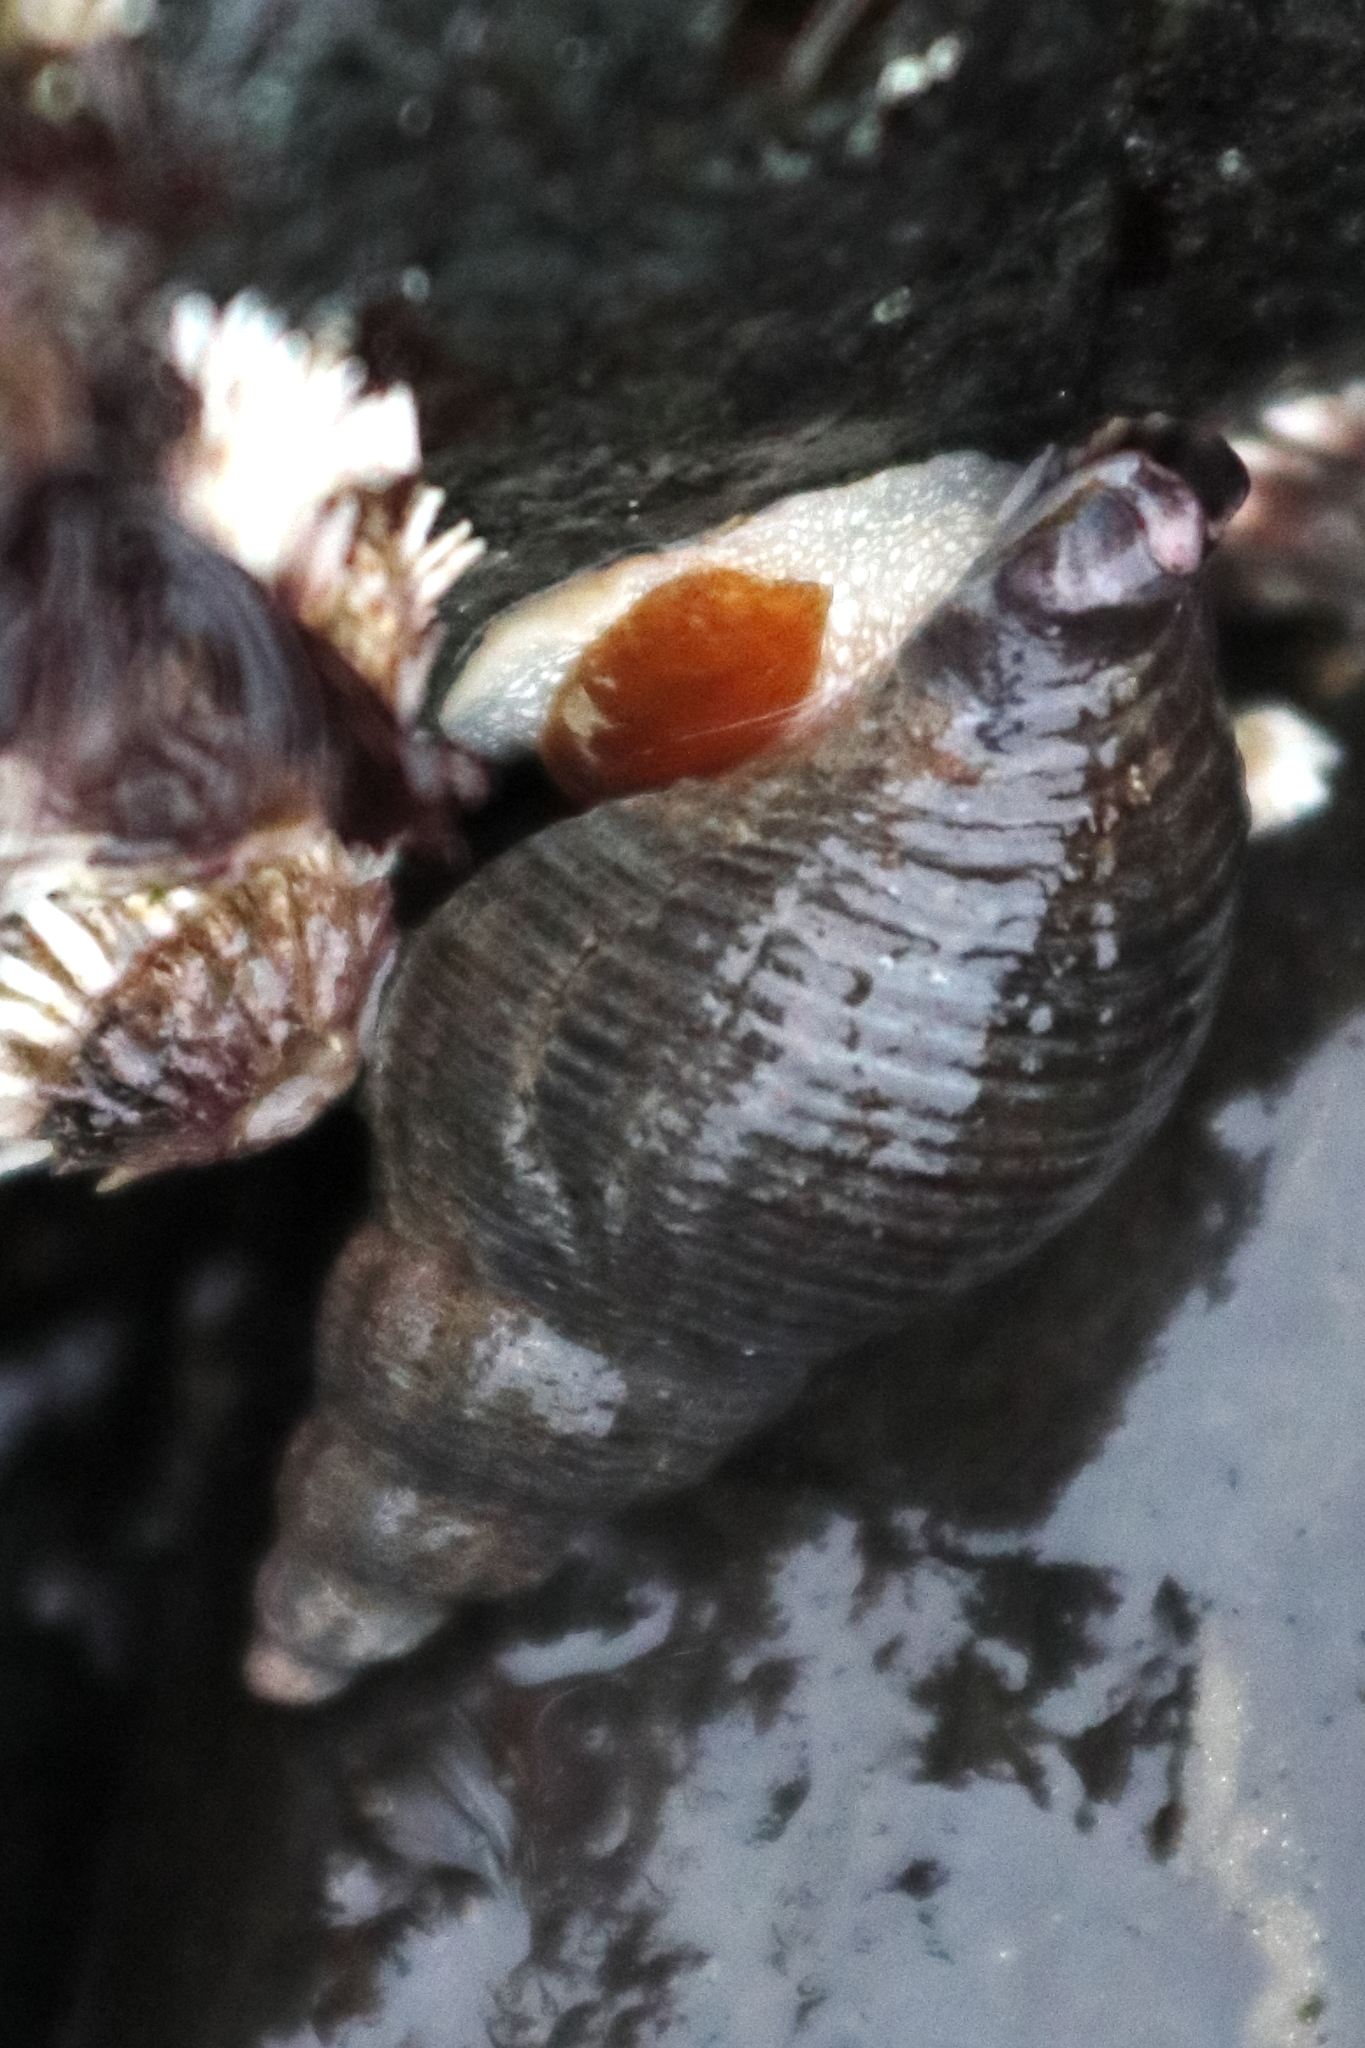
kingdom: Animalia
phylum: Mollusca
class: Gastropoda
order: Neogastropoda
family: Tudiclidae
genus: Lirabuccinum
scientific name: Lirabuccinum dirum
